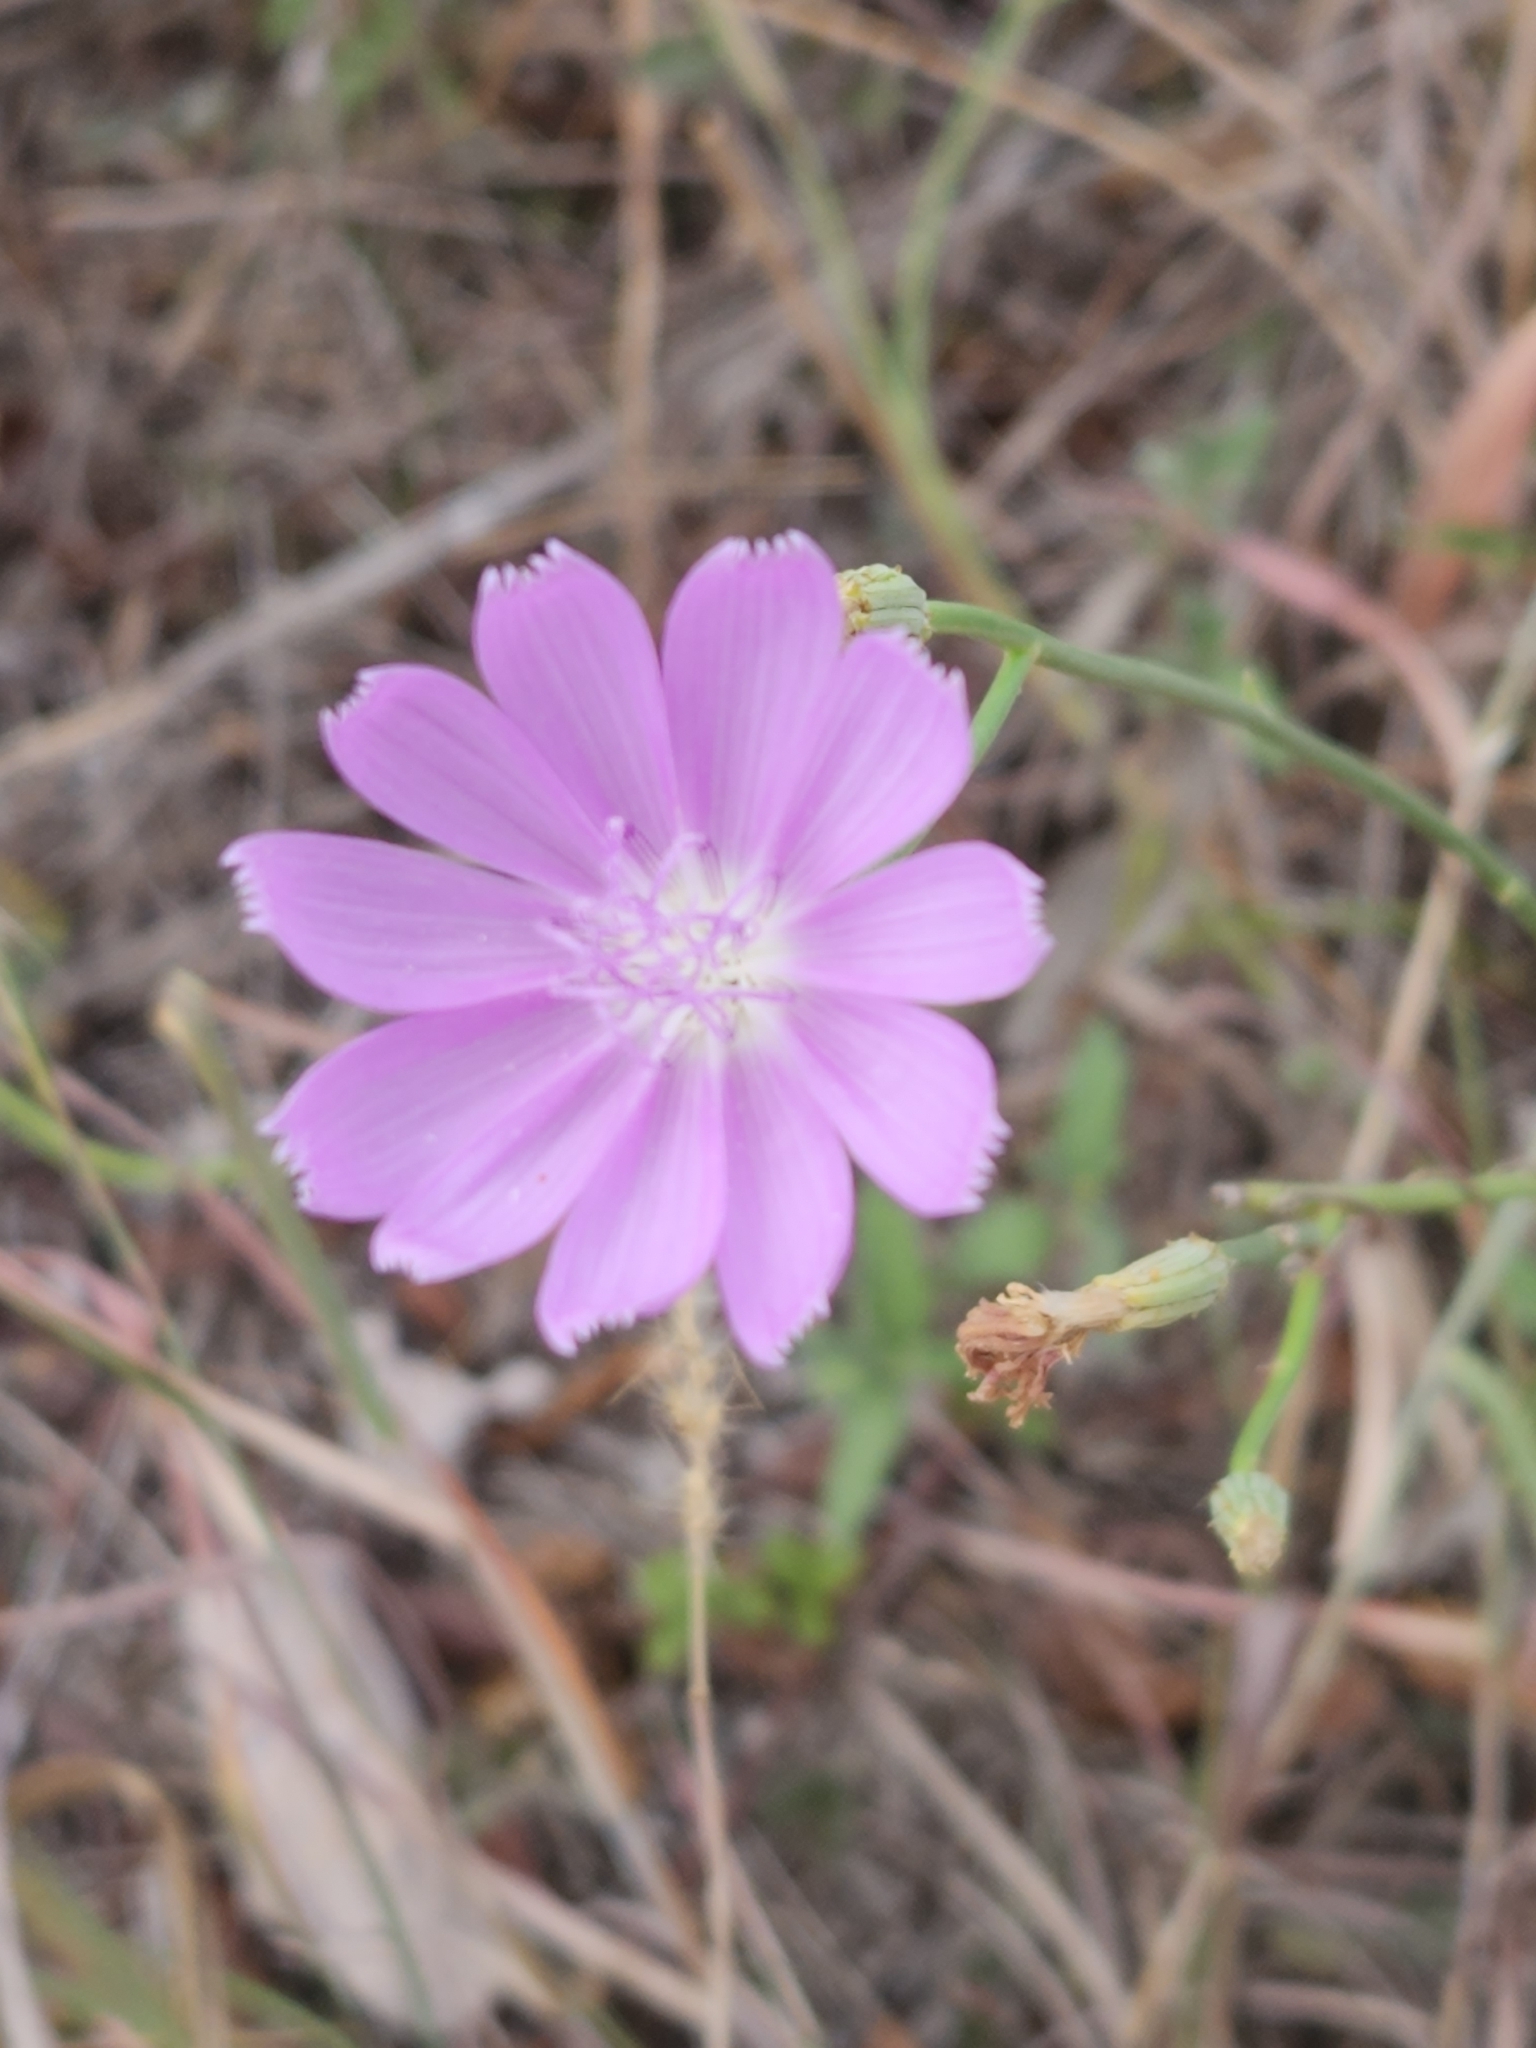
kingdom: Plantae
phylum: Tracheophyta
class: Magnoliopsida
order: Asterales
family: Asteraceae
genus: Lygodesmia
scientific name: Lygodesmia texana
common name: Texas skeleton-plant
